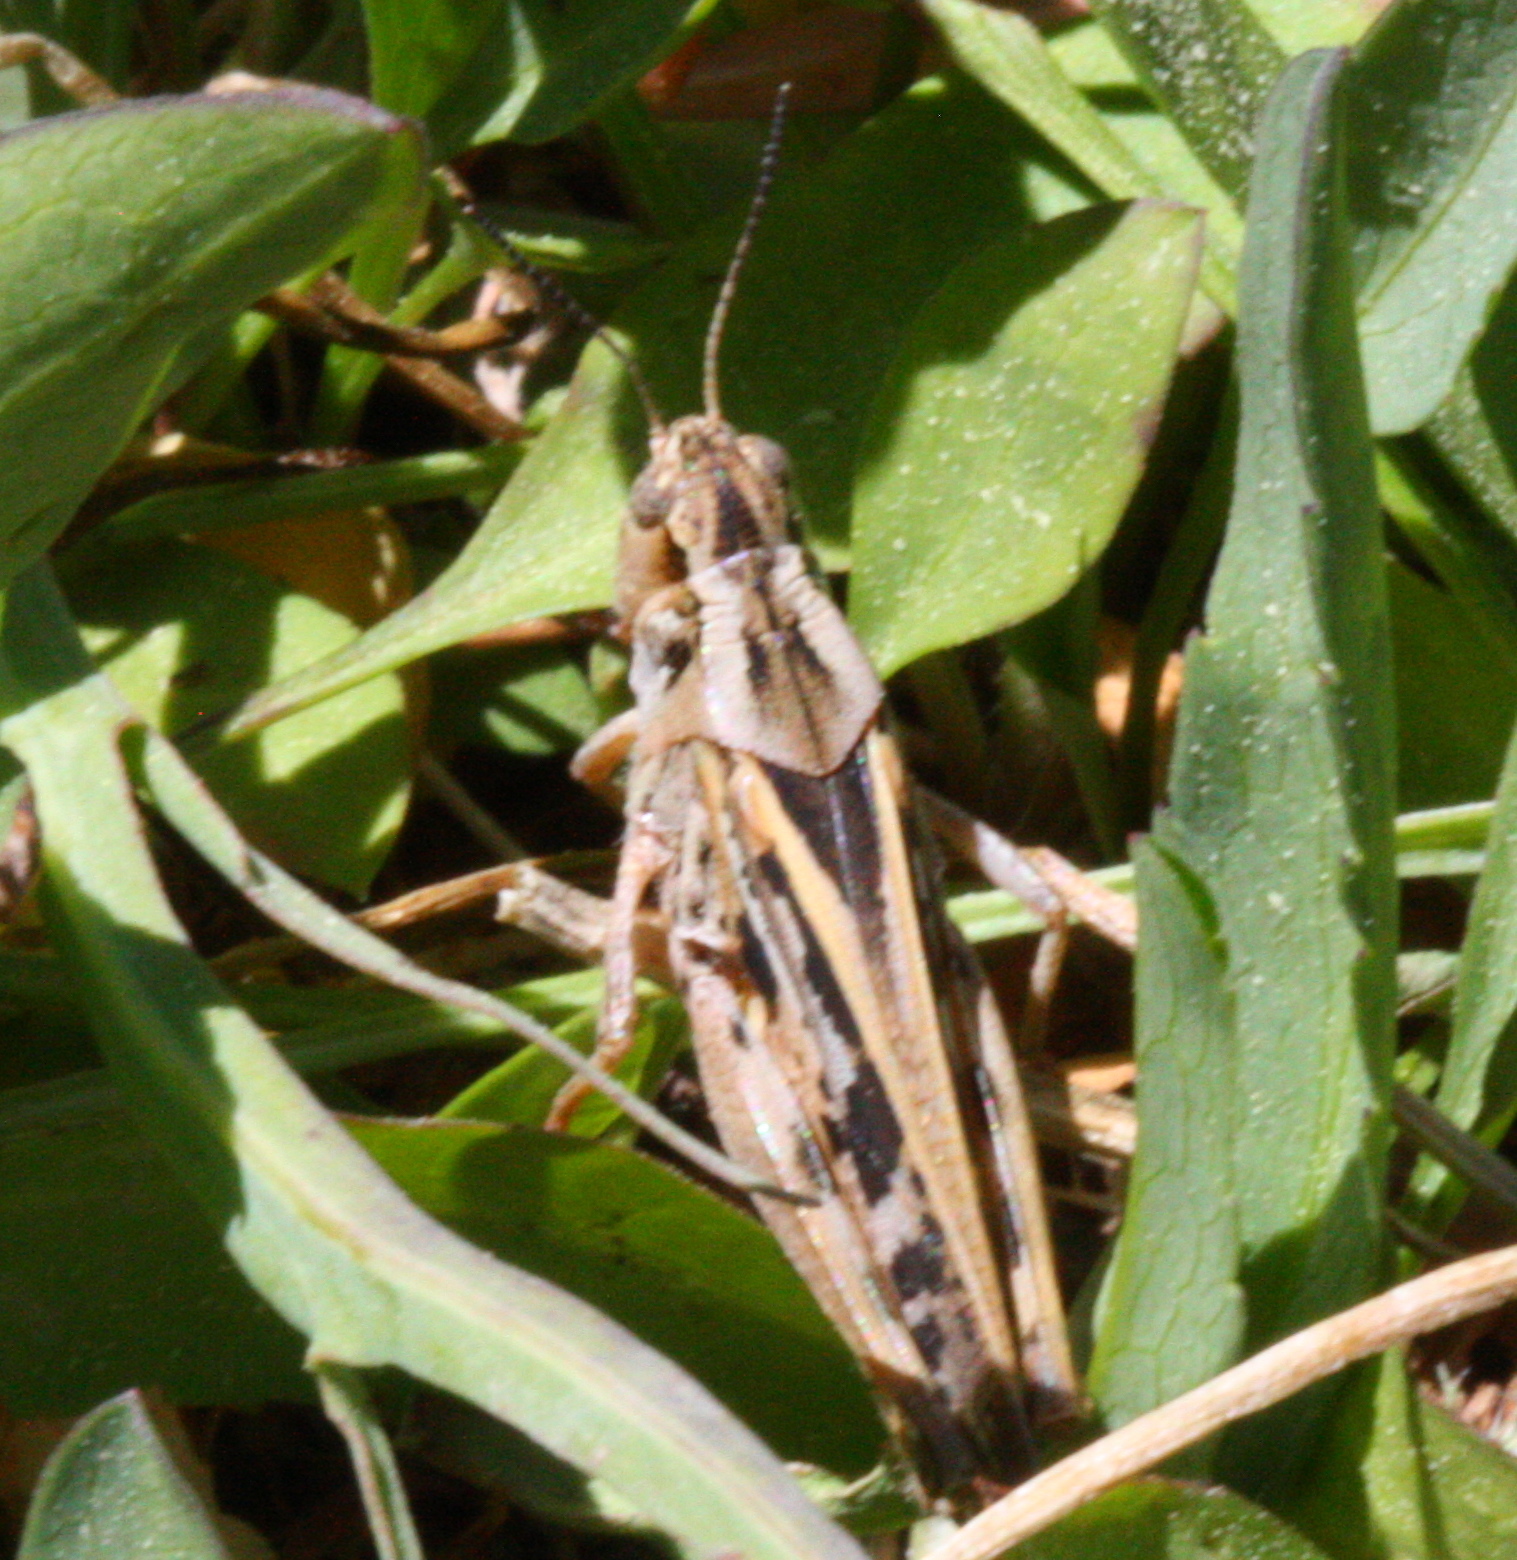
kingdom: Animalia
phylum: Arthropoda
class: Insecta
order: Orthoptera
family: Acrididae
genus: Camnula
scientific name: Camnula pellucida
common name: Clear-winged grasshopper
